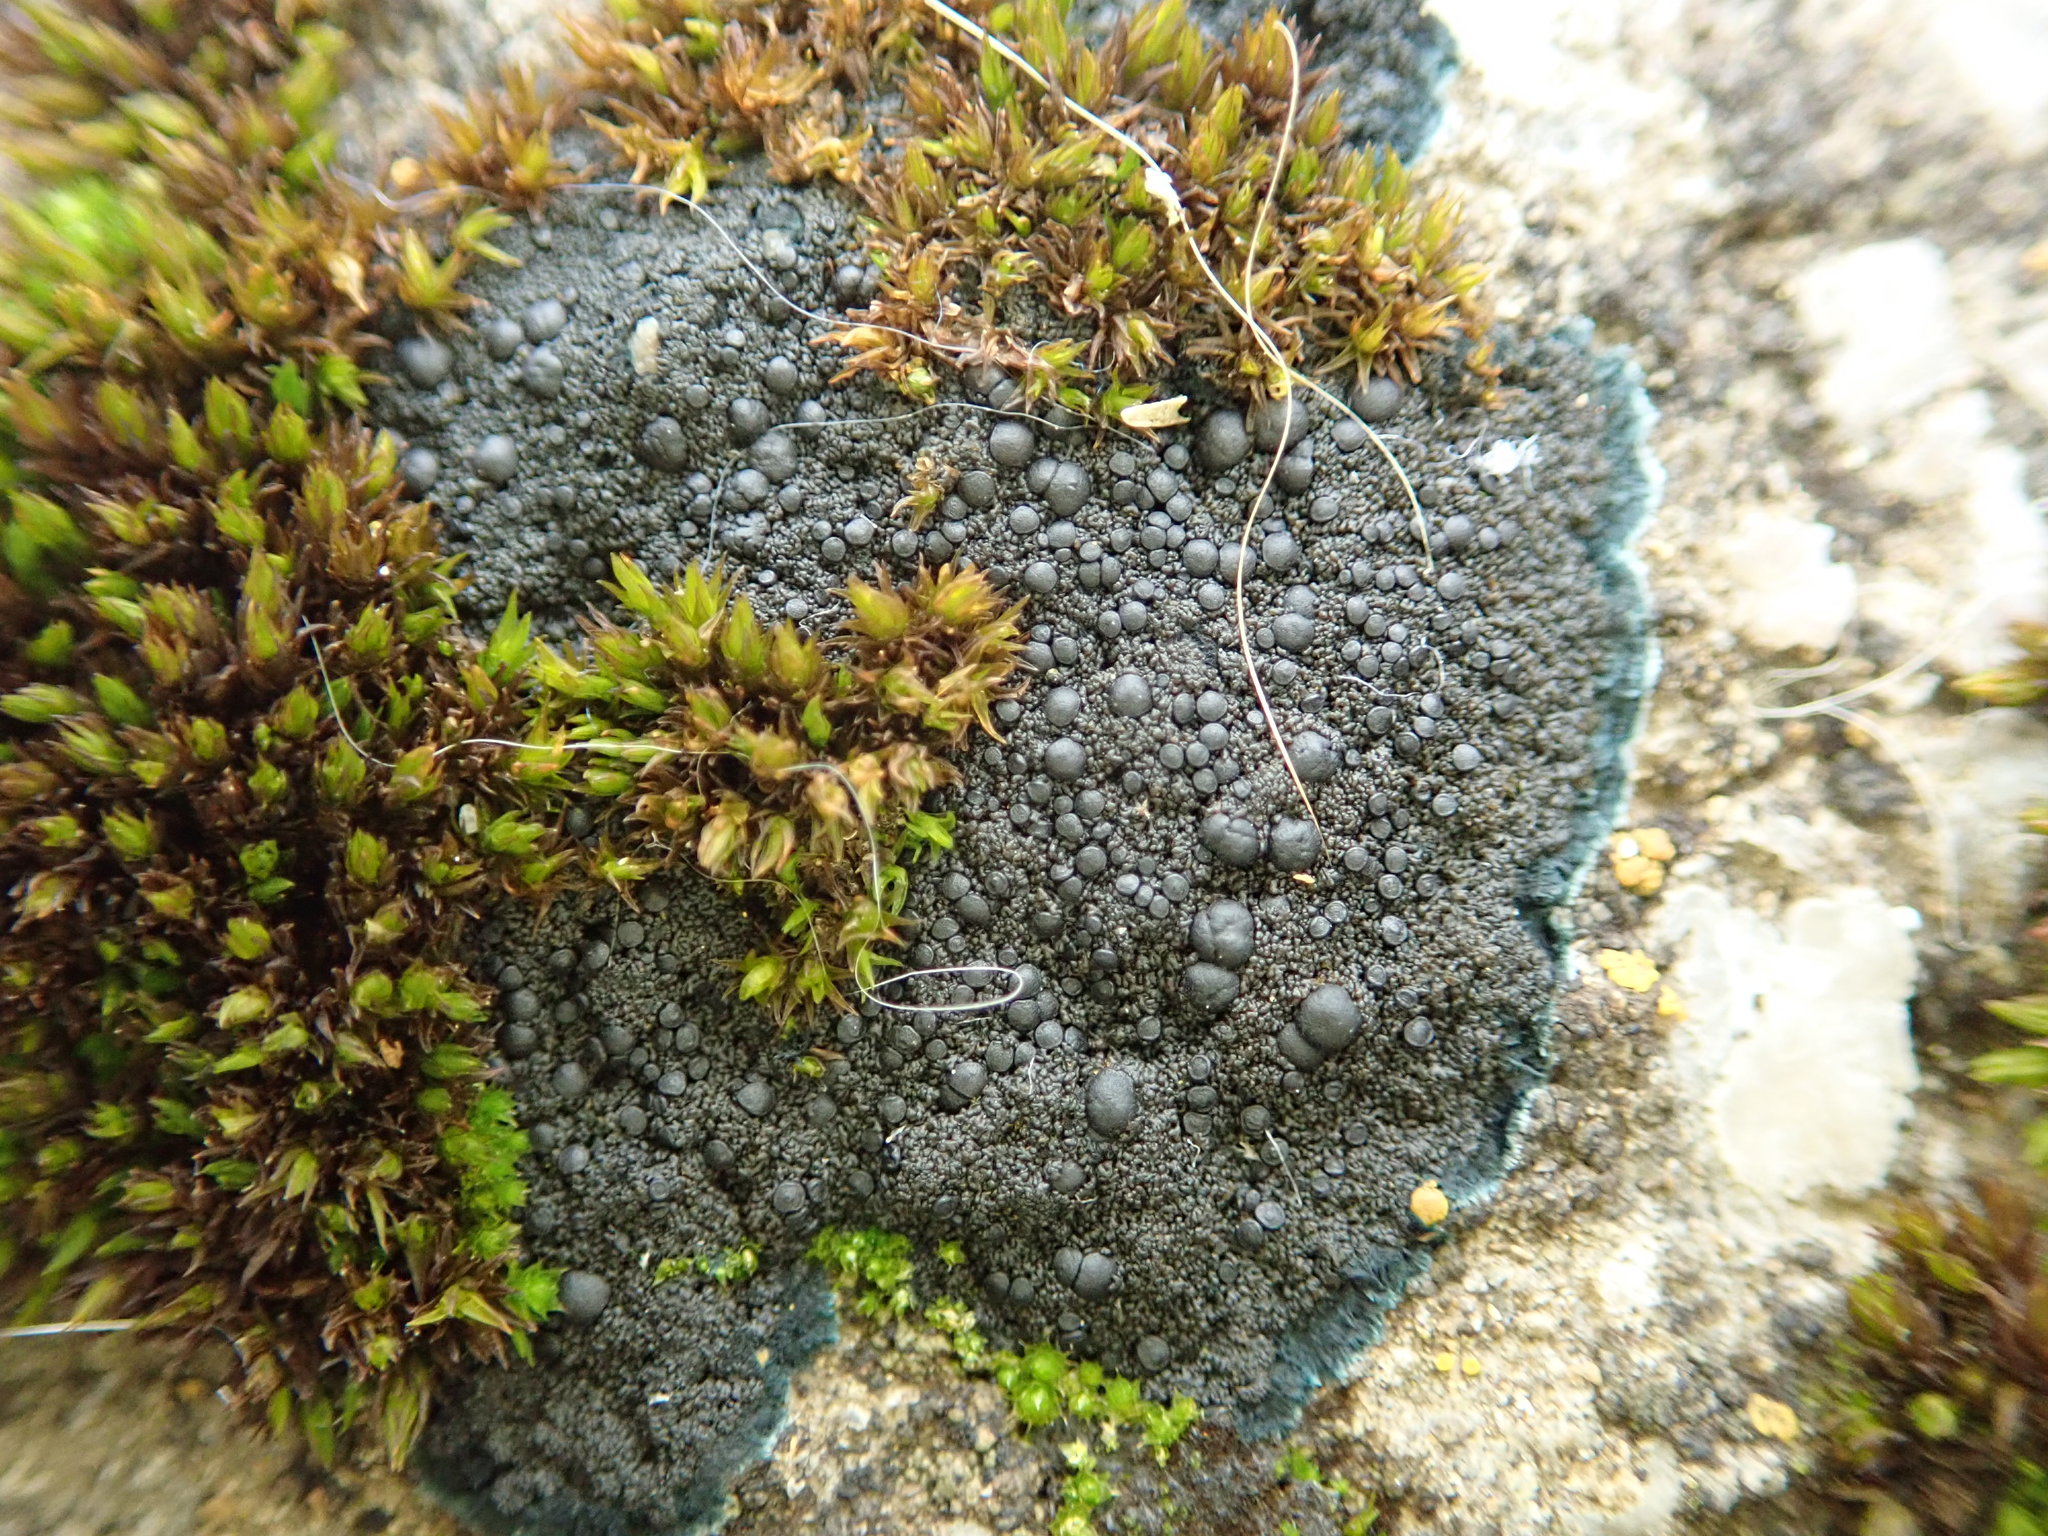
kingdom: Fungi
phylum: Ascomycota
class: Lecanoromycetes
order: Peltigerales
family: Placynthiaceae
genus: Placynthium
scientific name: Placynthium nigrum
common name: Blackthread lichen
